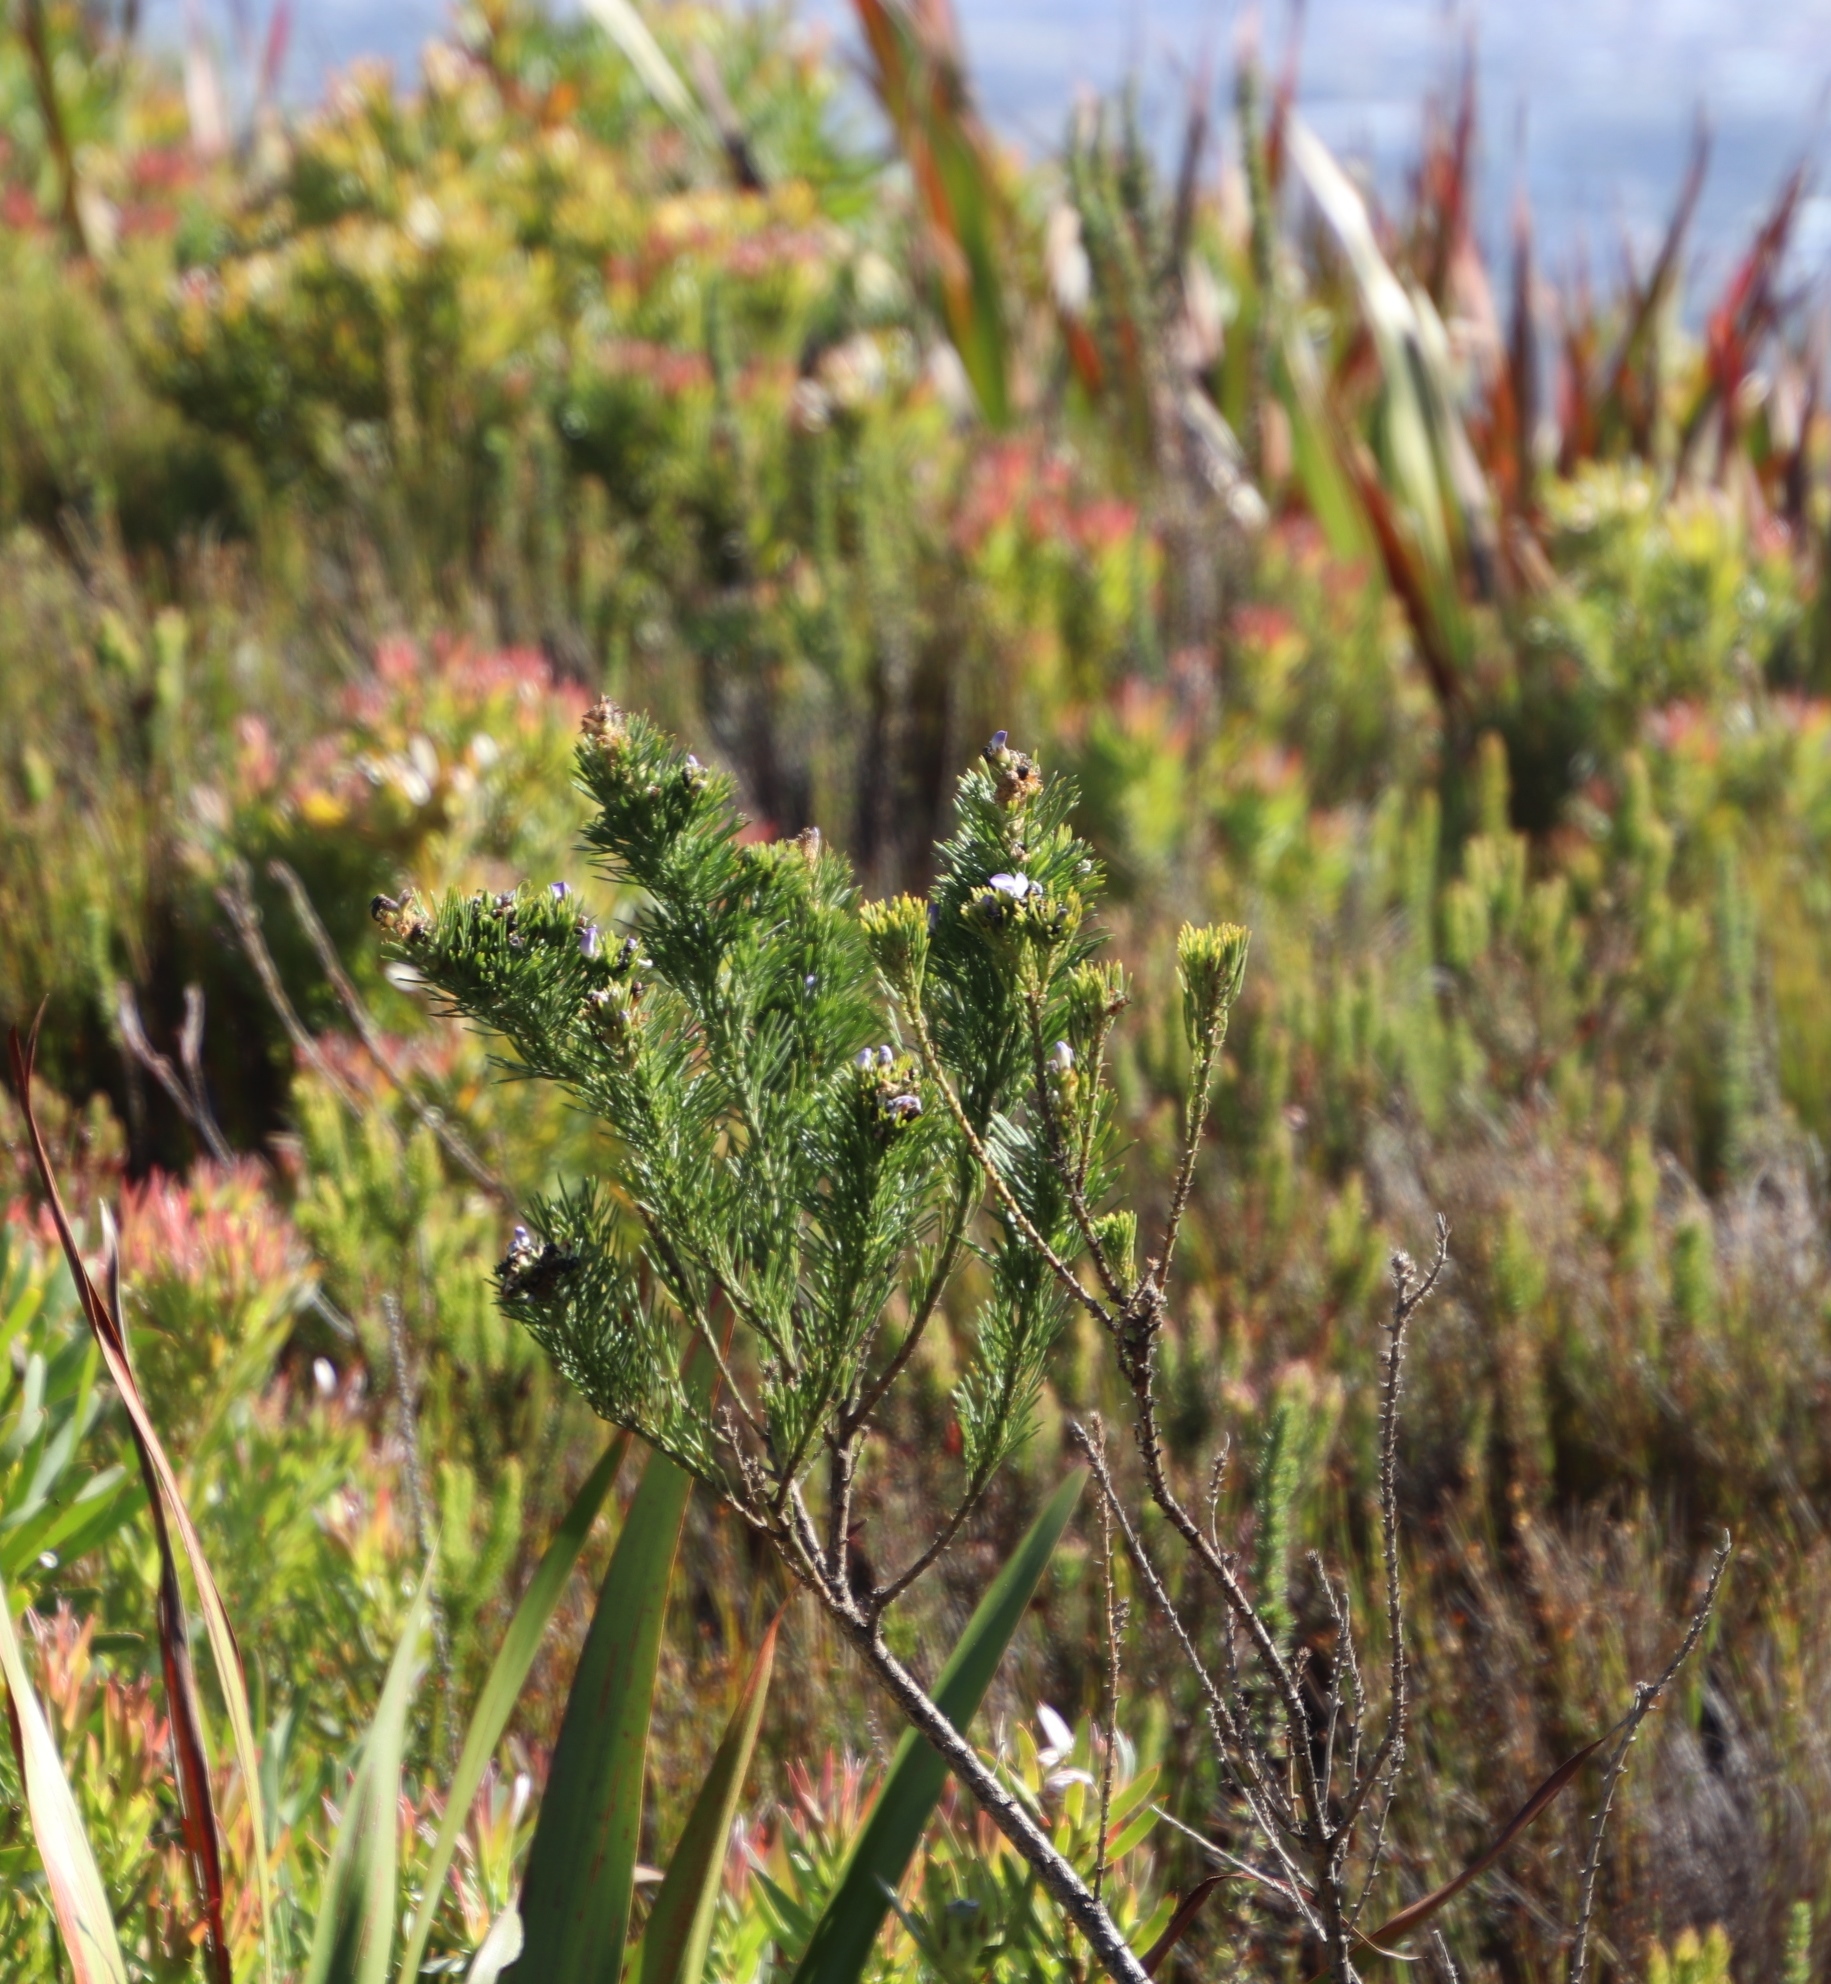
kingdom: Plantae
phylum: Tracheophyta
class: Magnoliopsida
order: Fabales
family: Fabaceae
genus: Psoralea
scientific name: Psoralea pinnata
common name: African scurfpea
